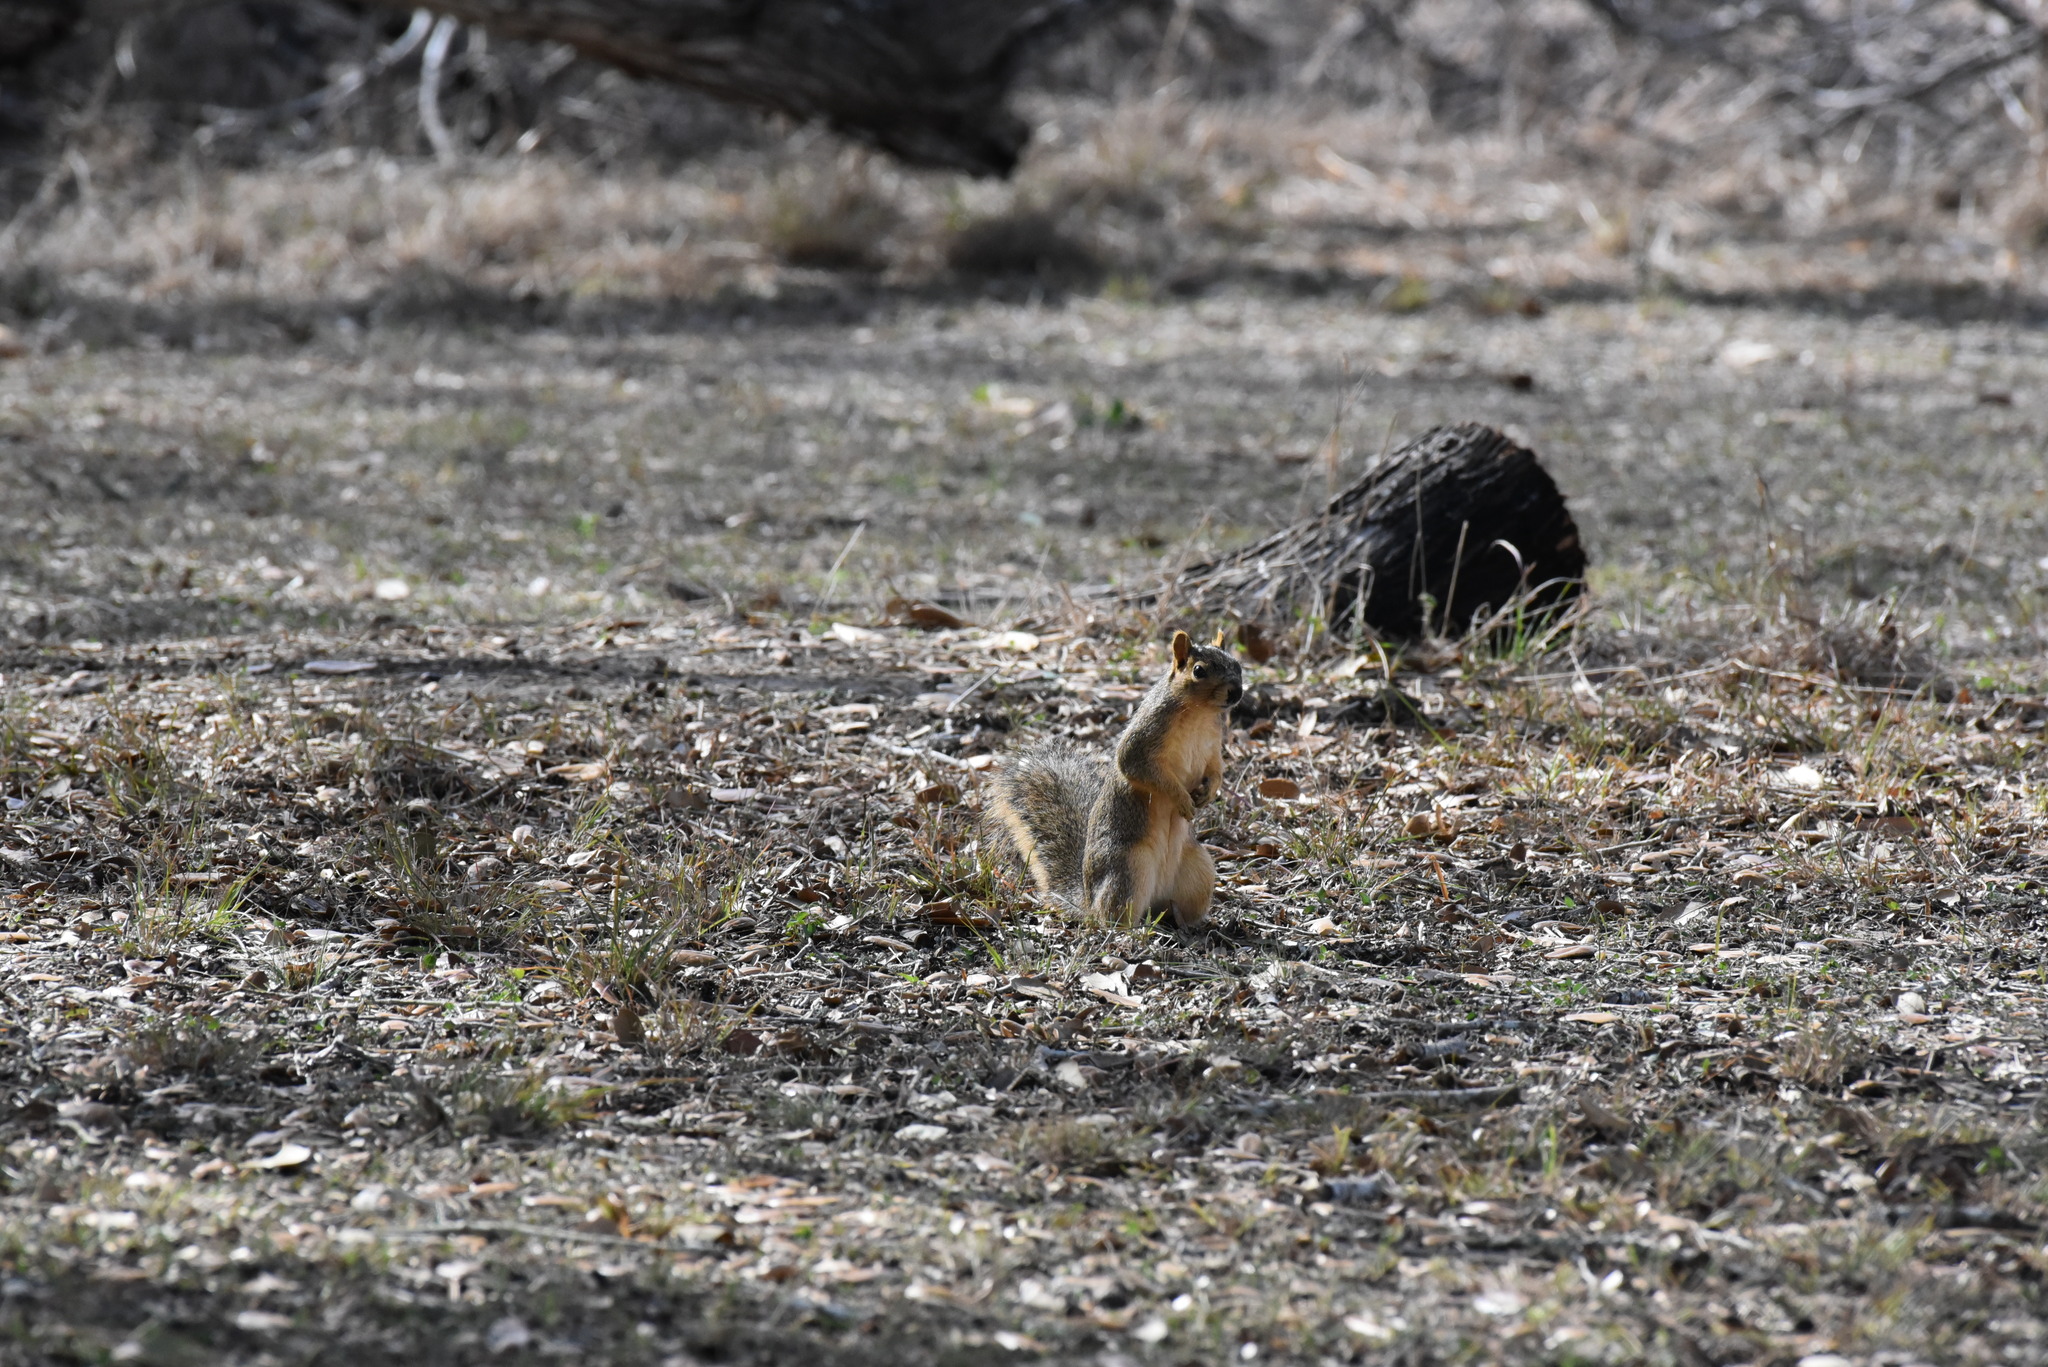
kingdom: Animalia
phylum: Chordata
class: Mammalia
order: Rodentia
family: Sciuridae
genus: Sciurus
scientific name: Sciurus niger
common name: Fox squirrel
